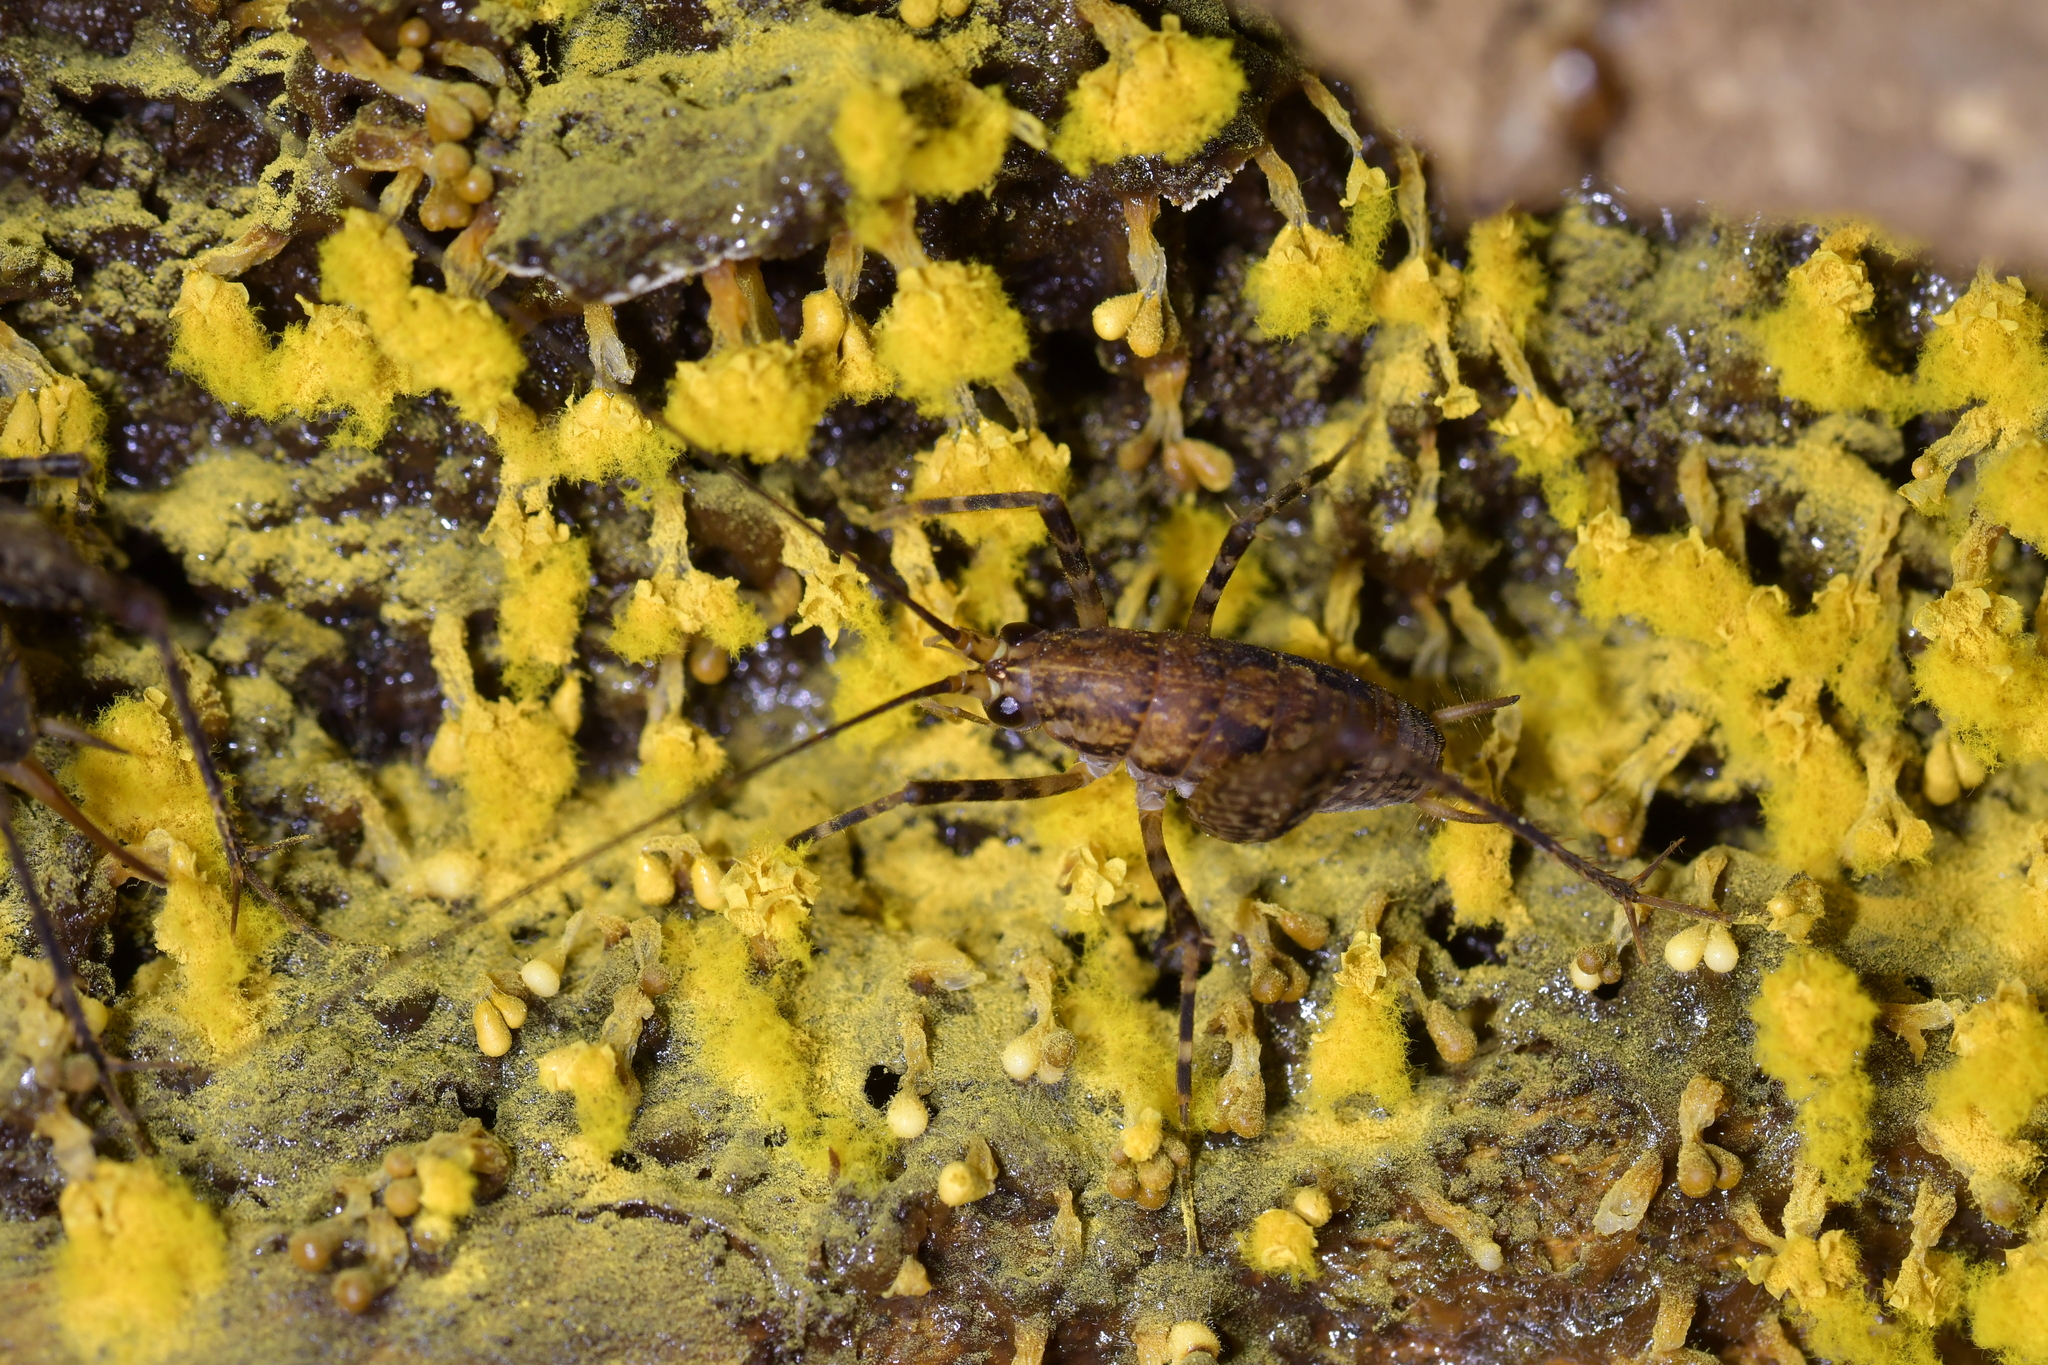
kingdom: Animalia
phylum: Arthropoda
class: Insecta
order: Orthoptera
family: Rhaphidophoridae
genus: Pleioplectron
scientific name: Pleioplectron hudsoni
